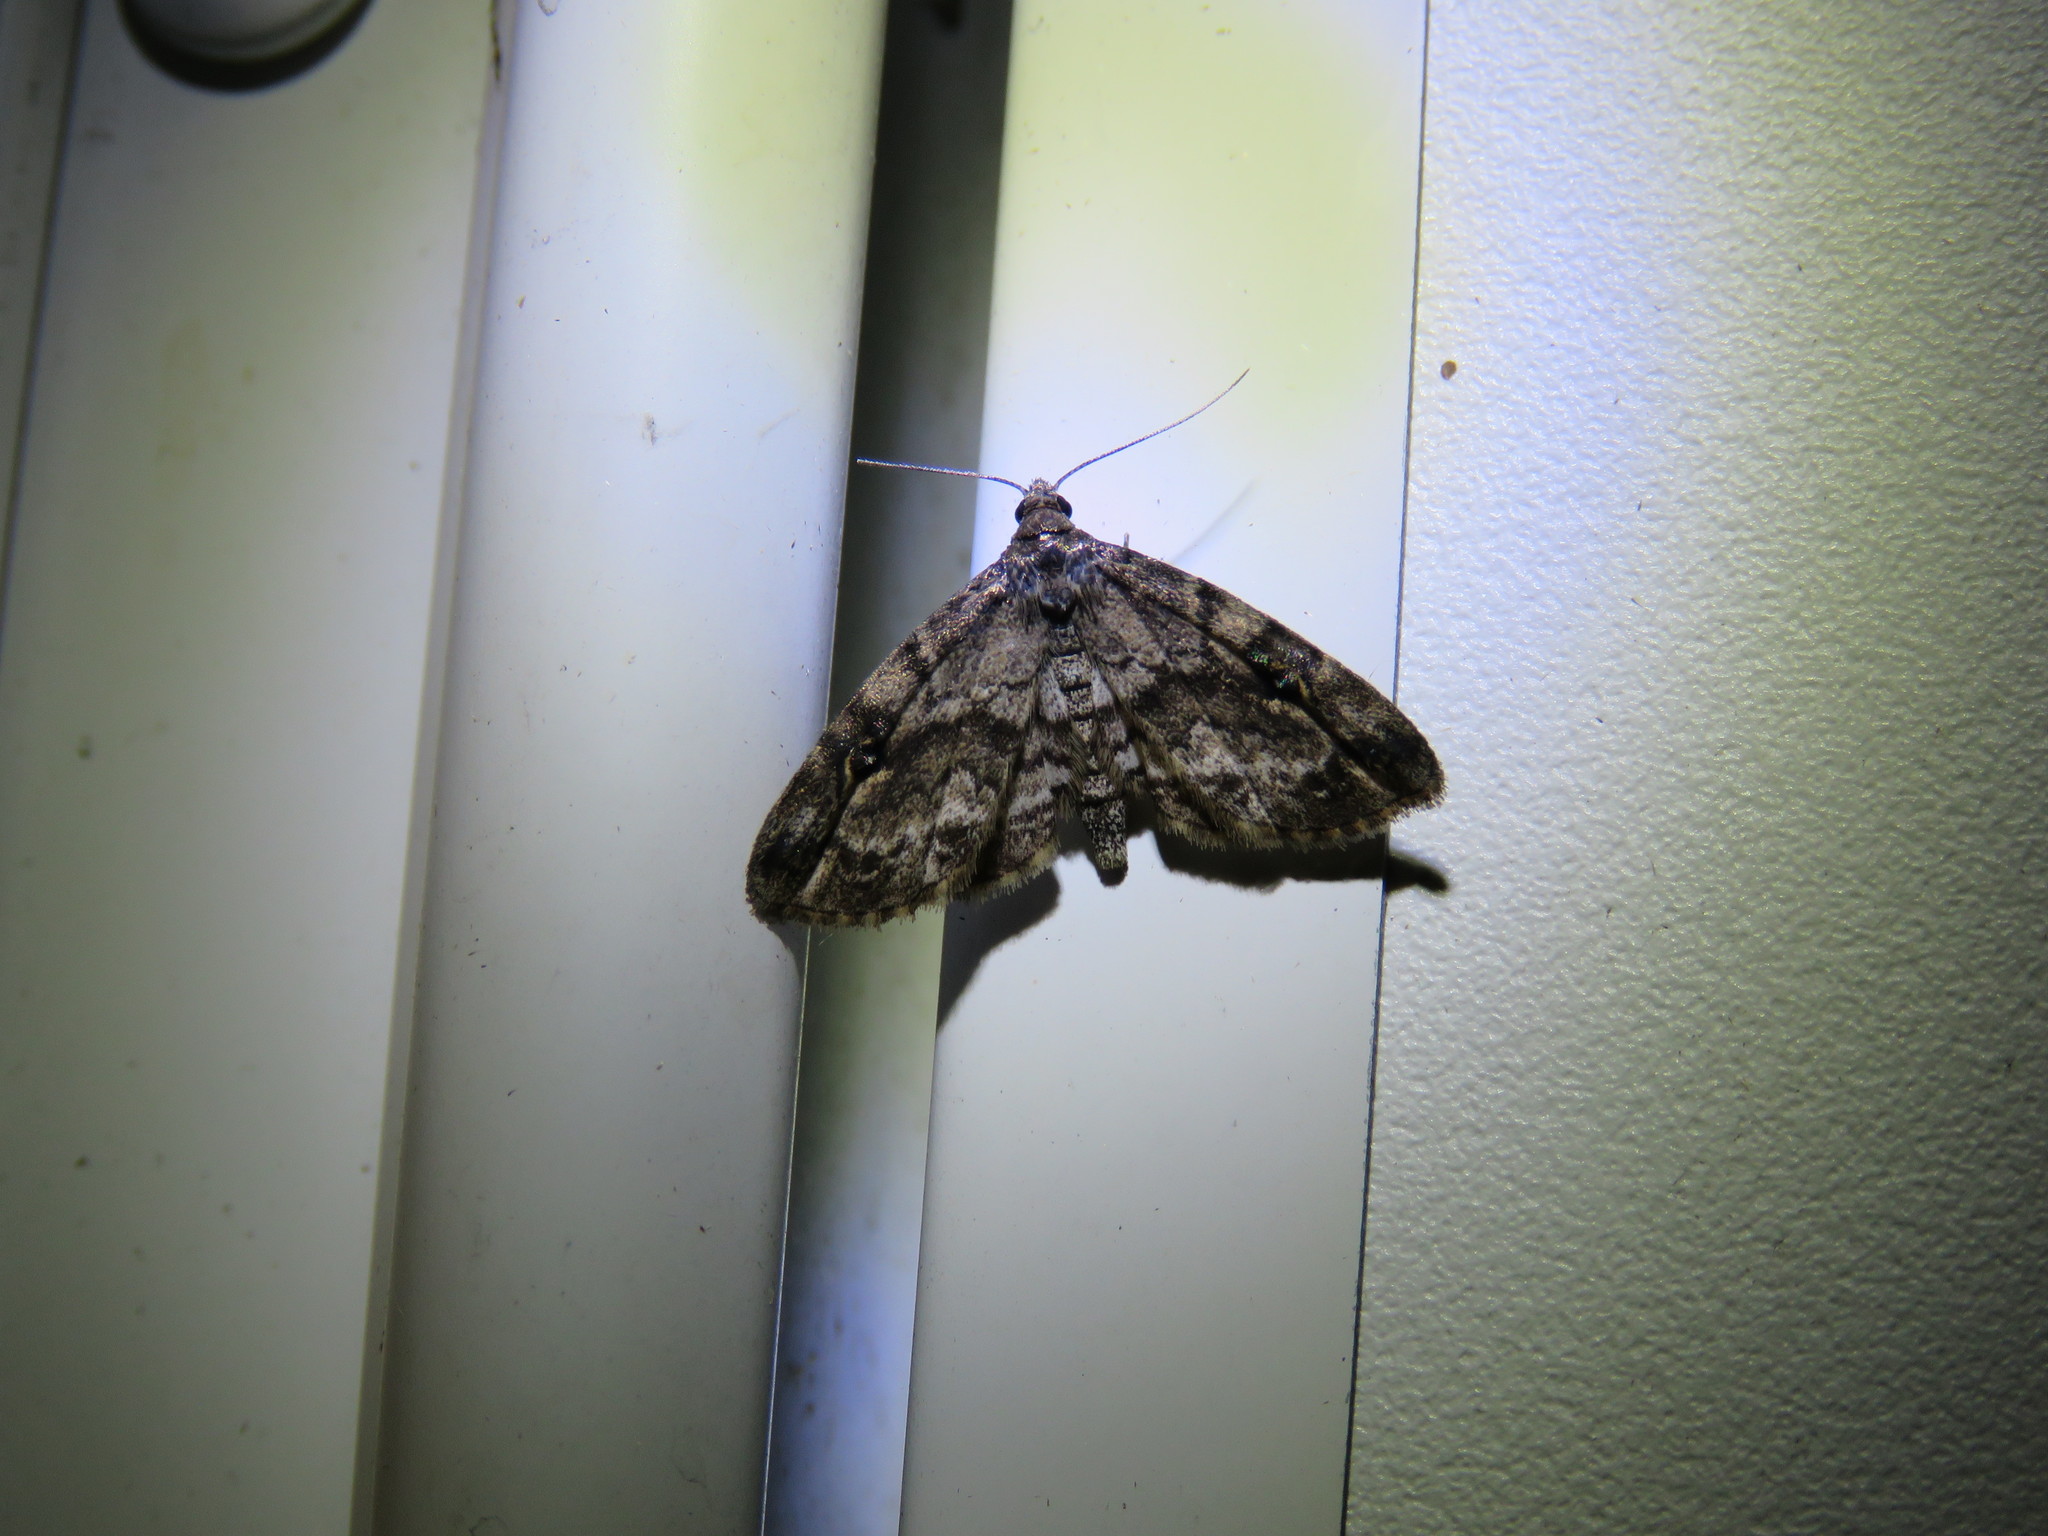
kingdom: Animalia
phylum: Arthropoda
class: Insecta
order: Lepidoptera
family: Erebidae
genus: Melanomma
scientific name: Melanomma auricinctaria
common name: Gold-lined melanomma moth
